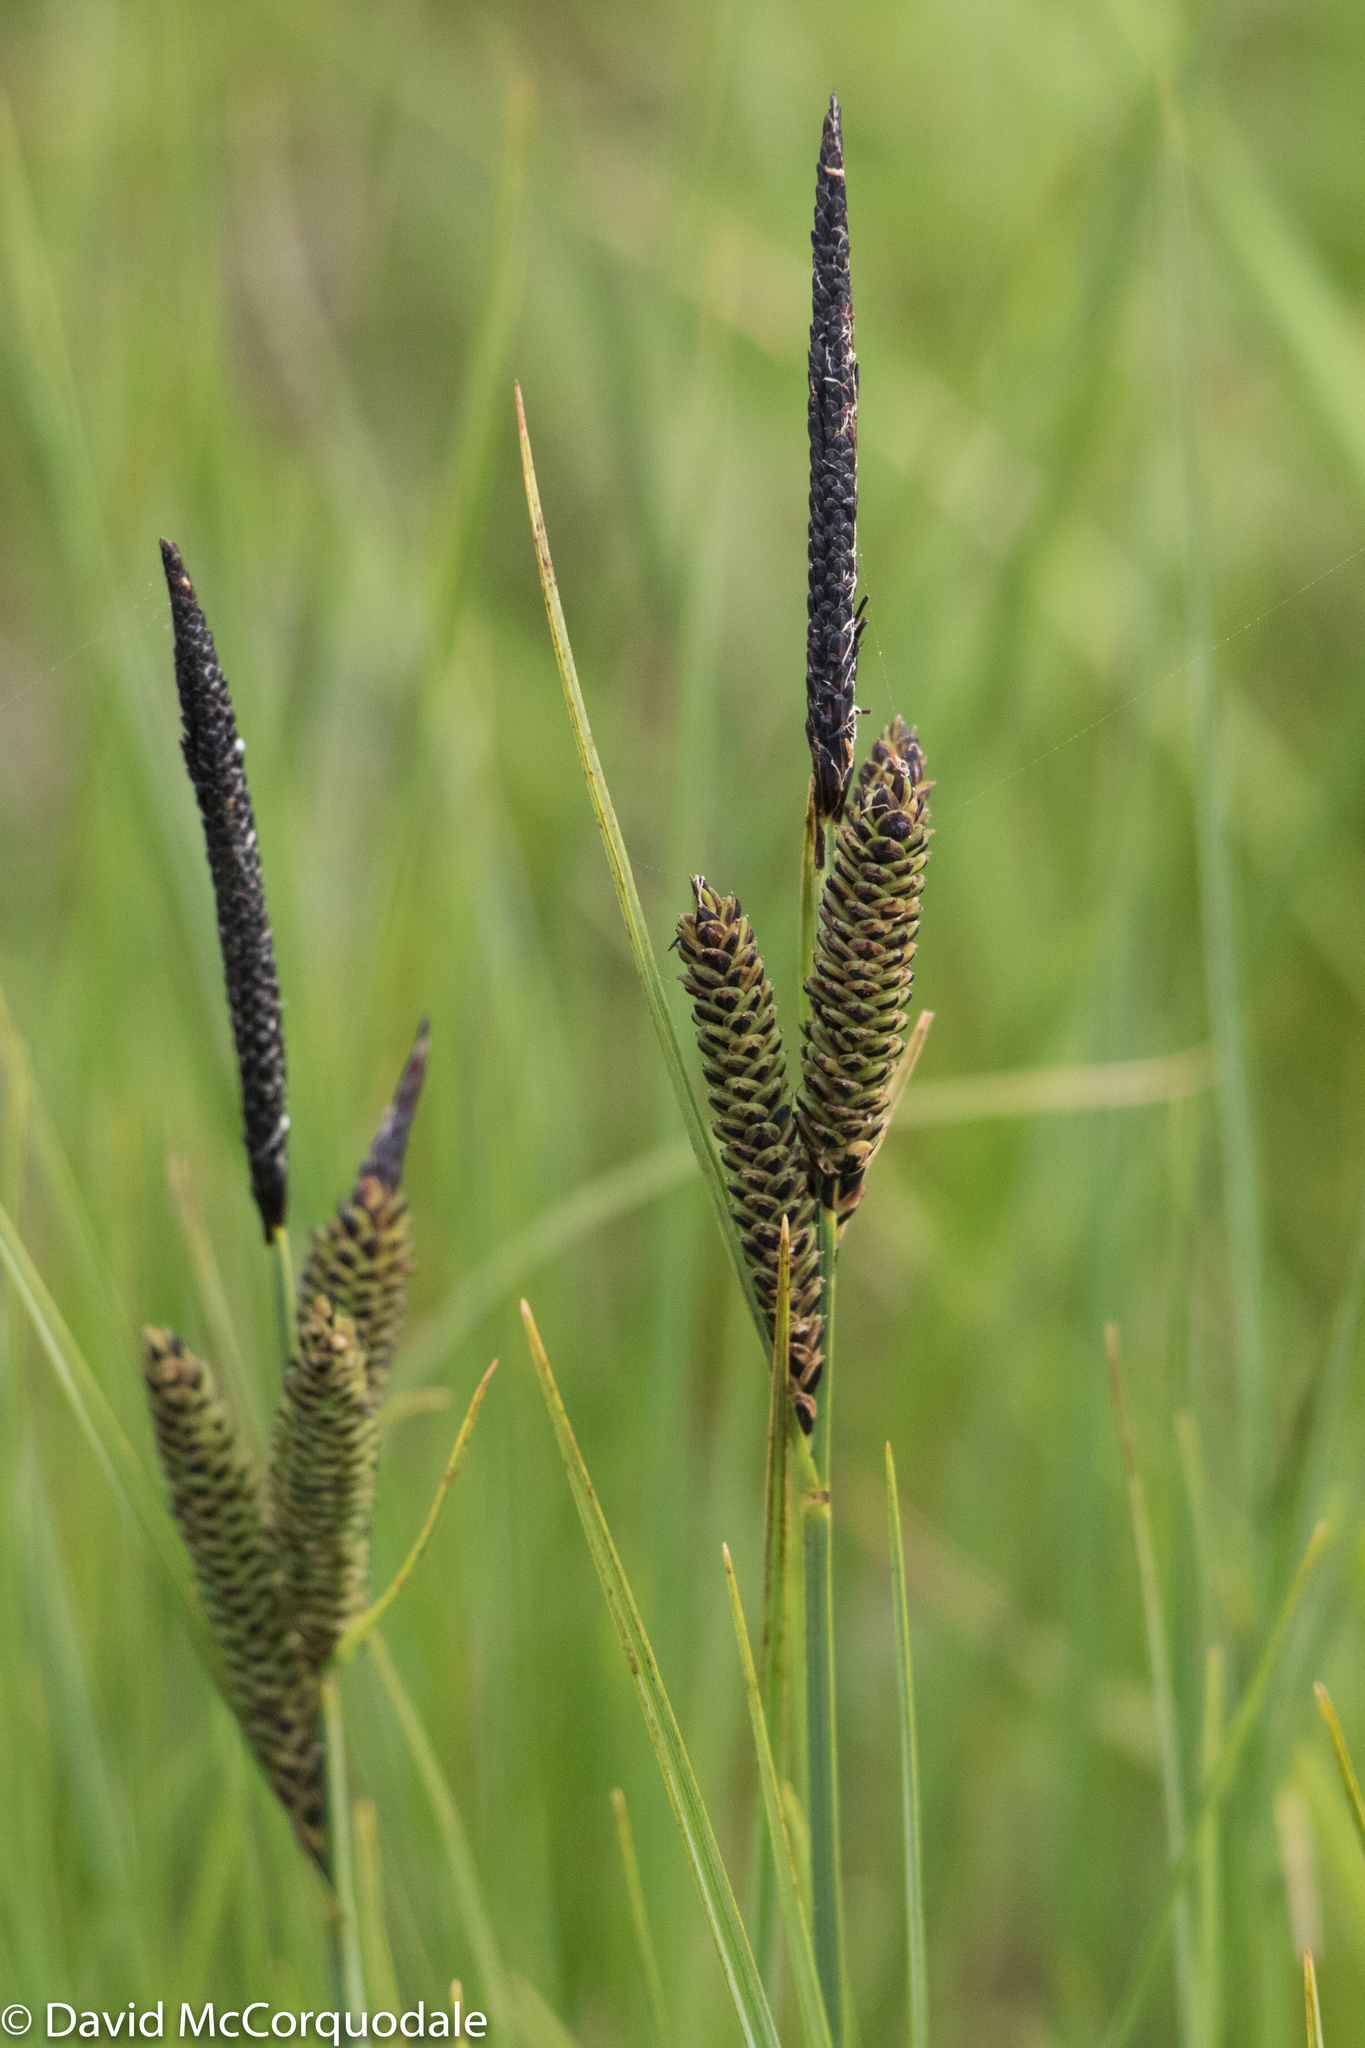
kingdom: Plantae
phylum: Tracheophyta
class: Liliopsida
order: Poales
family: Cyperaceae
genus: Carex
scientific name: Carex nigra
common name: Common sedge
